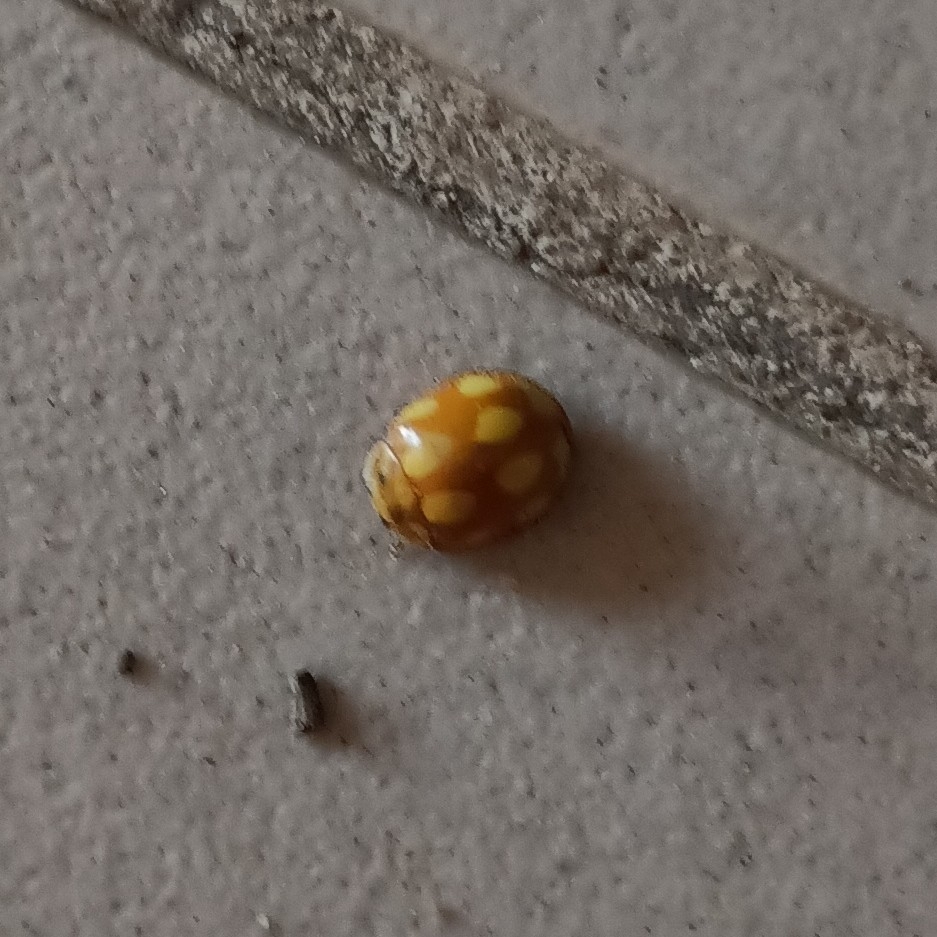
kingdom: Animalia
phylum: Arthropoda
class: Insecta
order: Coleoptera
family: Coccinellidae
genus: Calvia
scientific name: Calvia decemguttata
